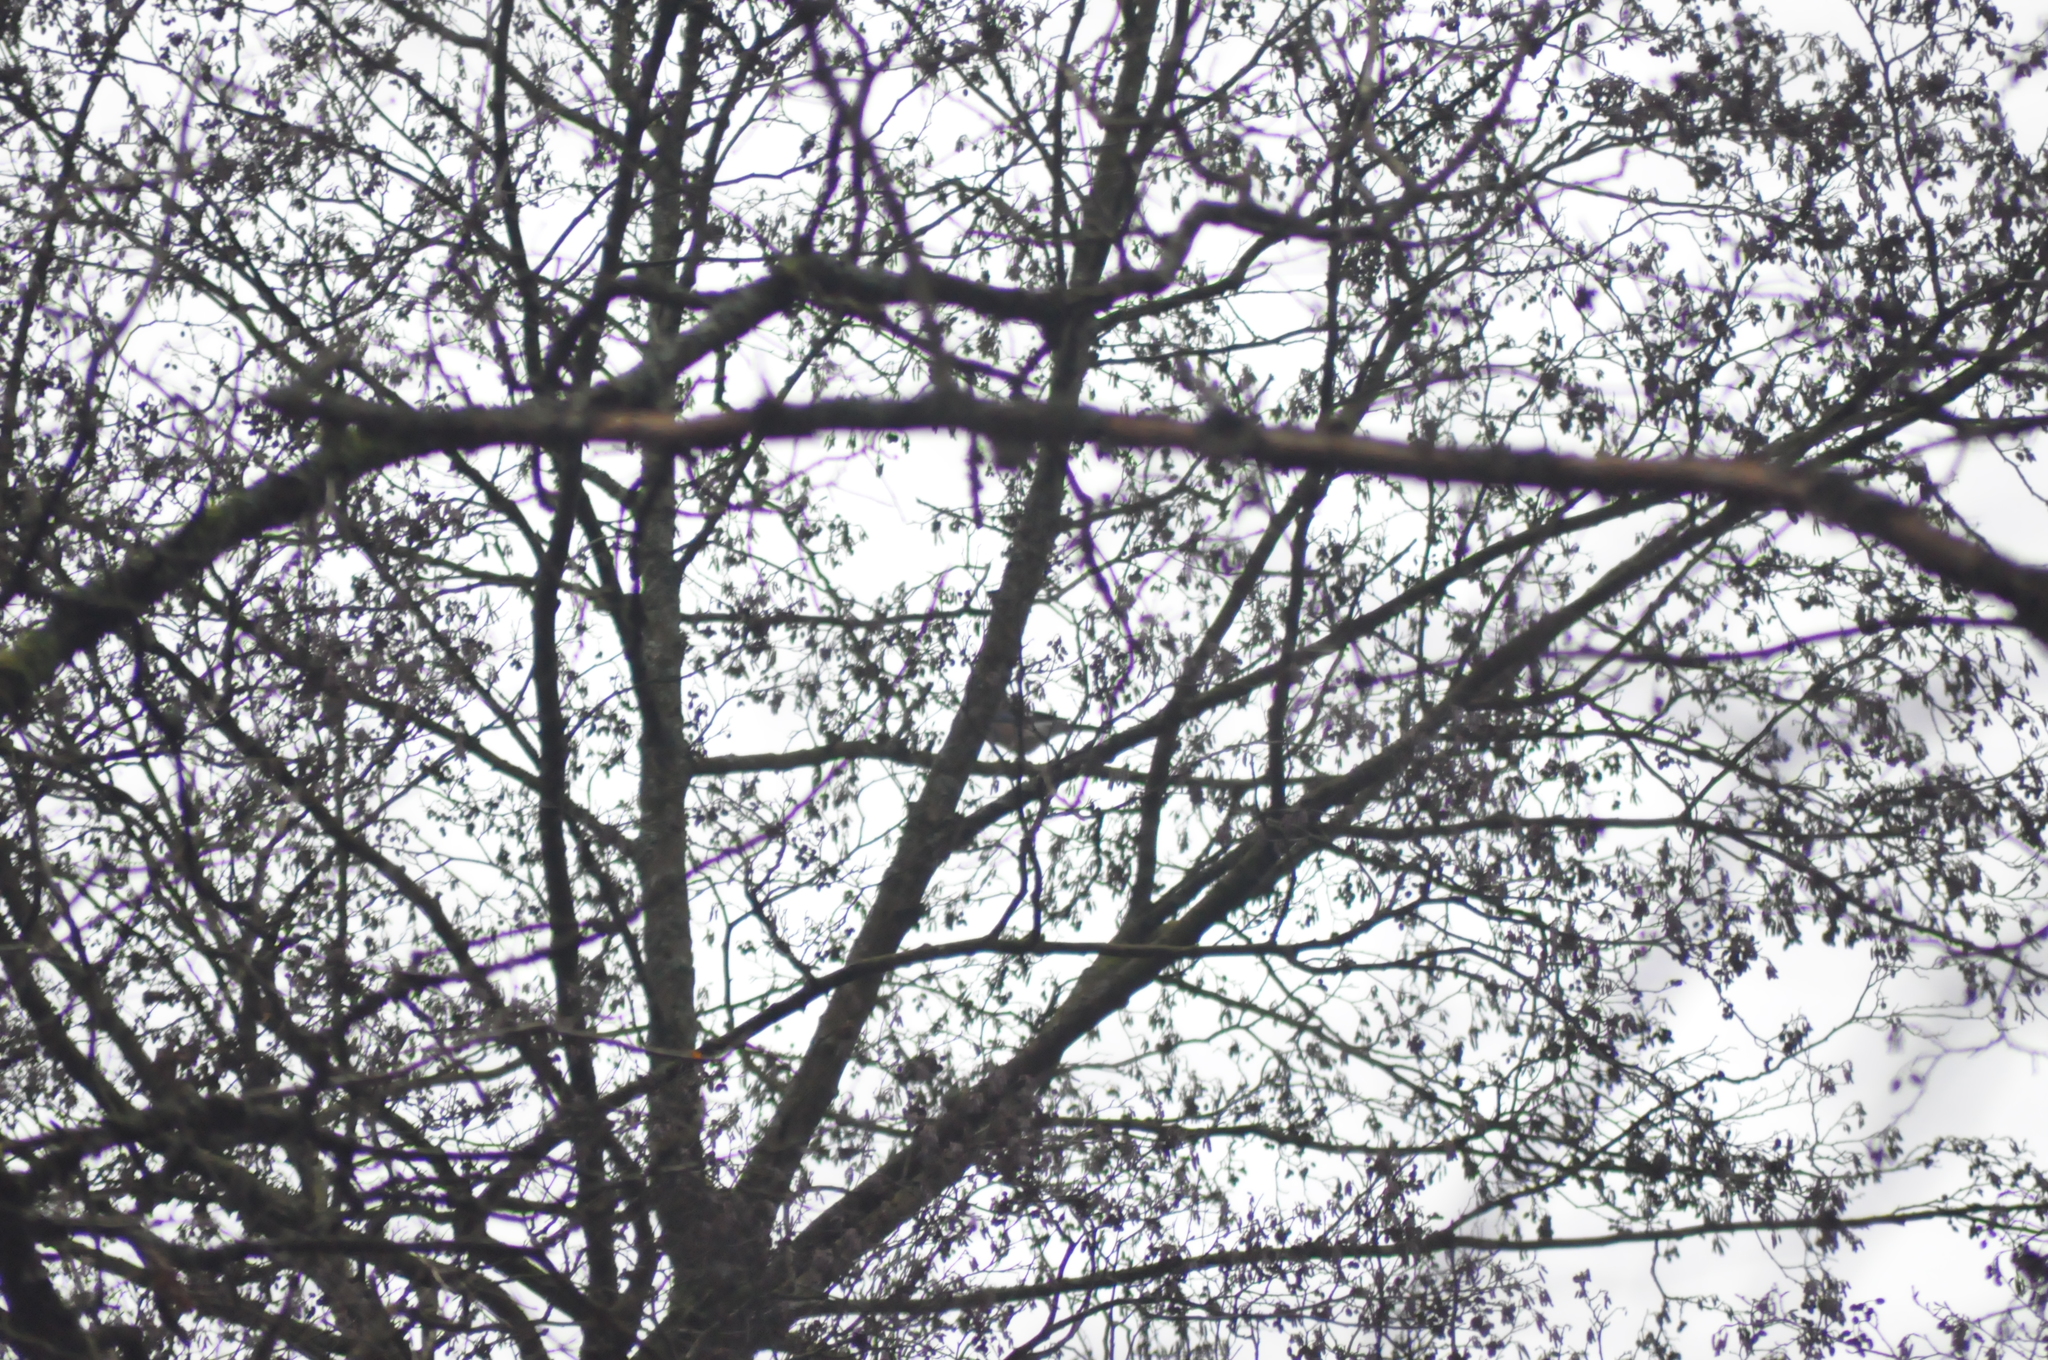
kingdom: Animalia
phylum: Chordata
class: Aves
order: Passeriformes
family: Corvidae
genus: Garrulus
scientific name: Garrulus glandarius
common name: Eurasian jay
